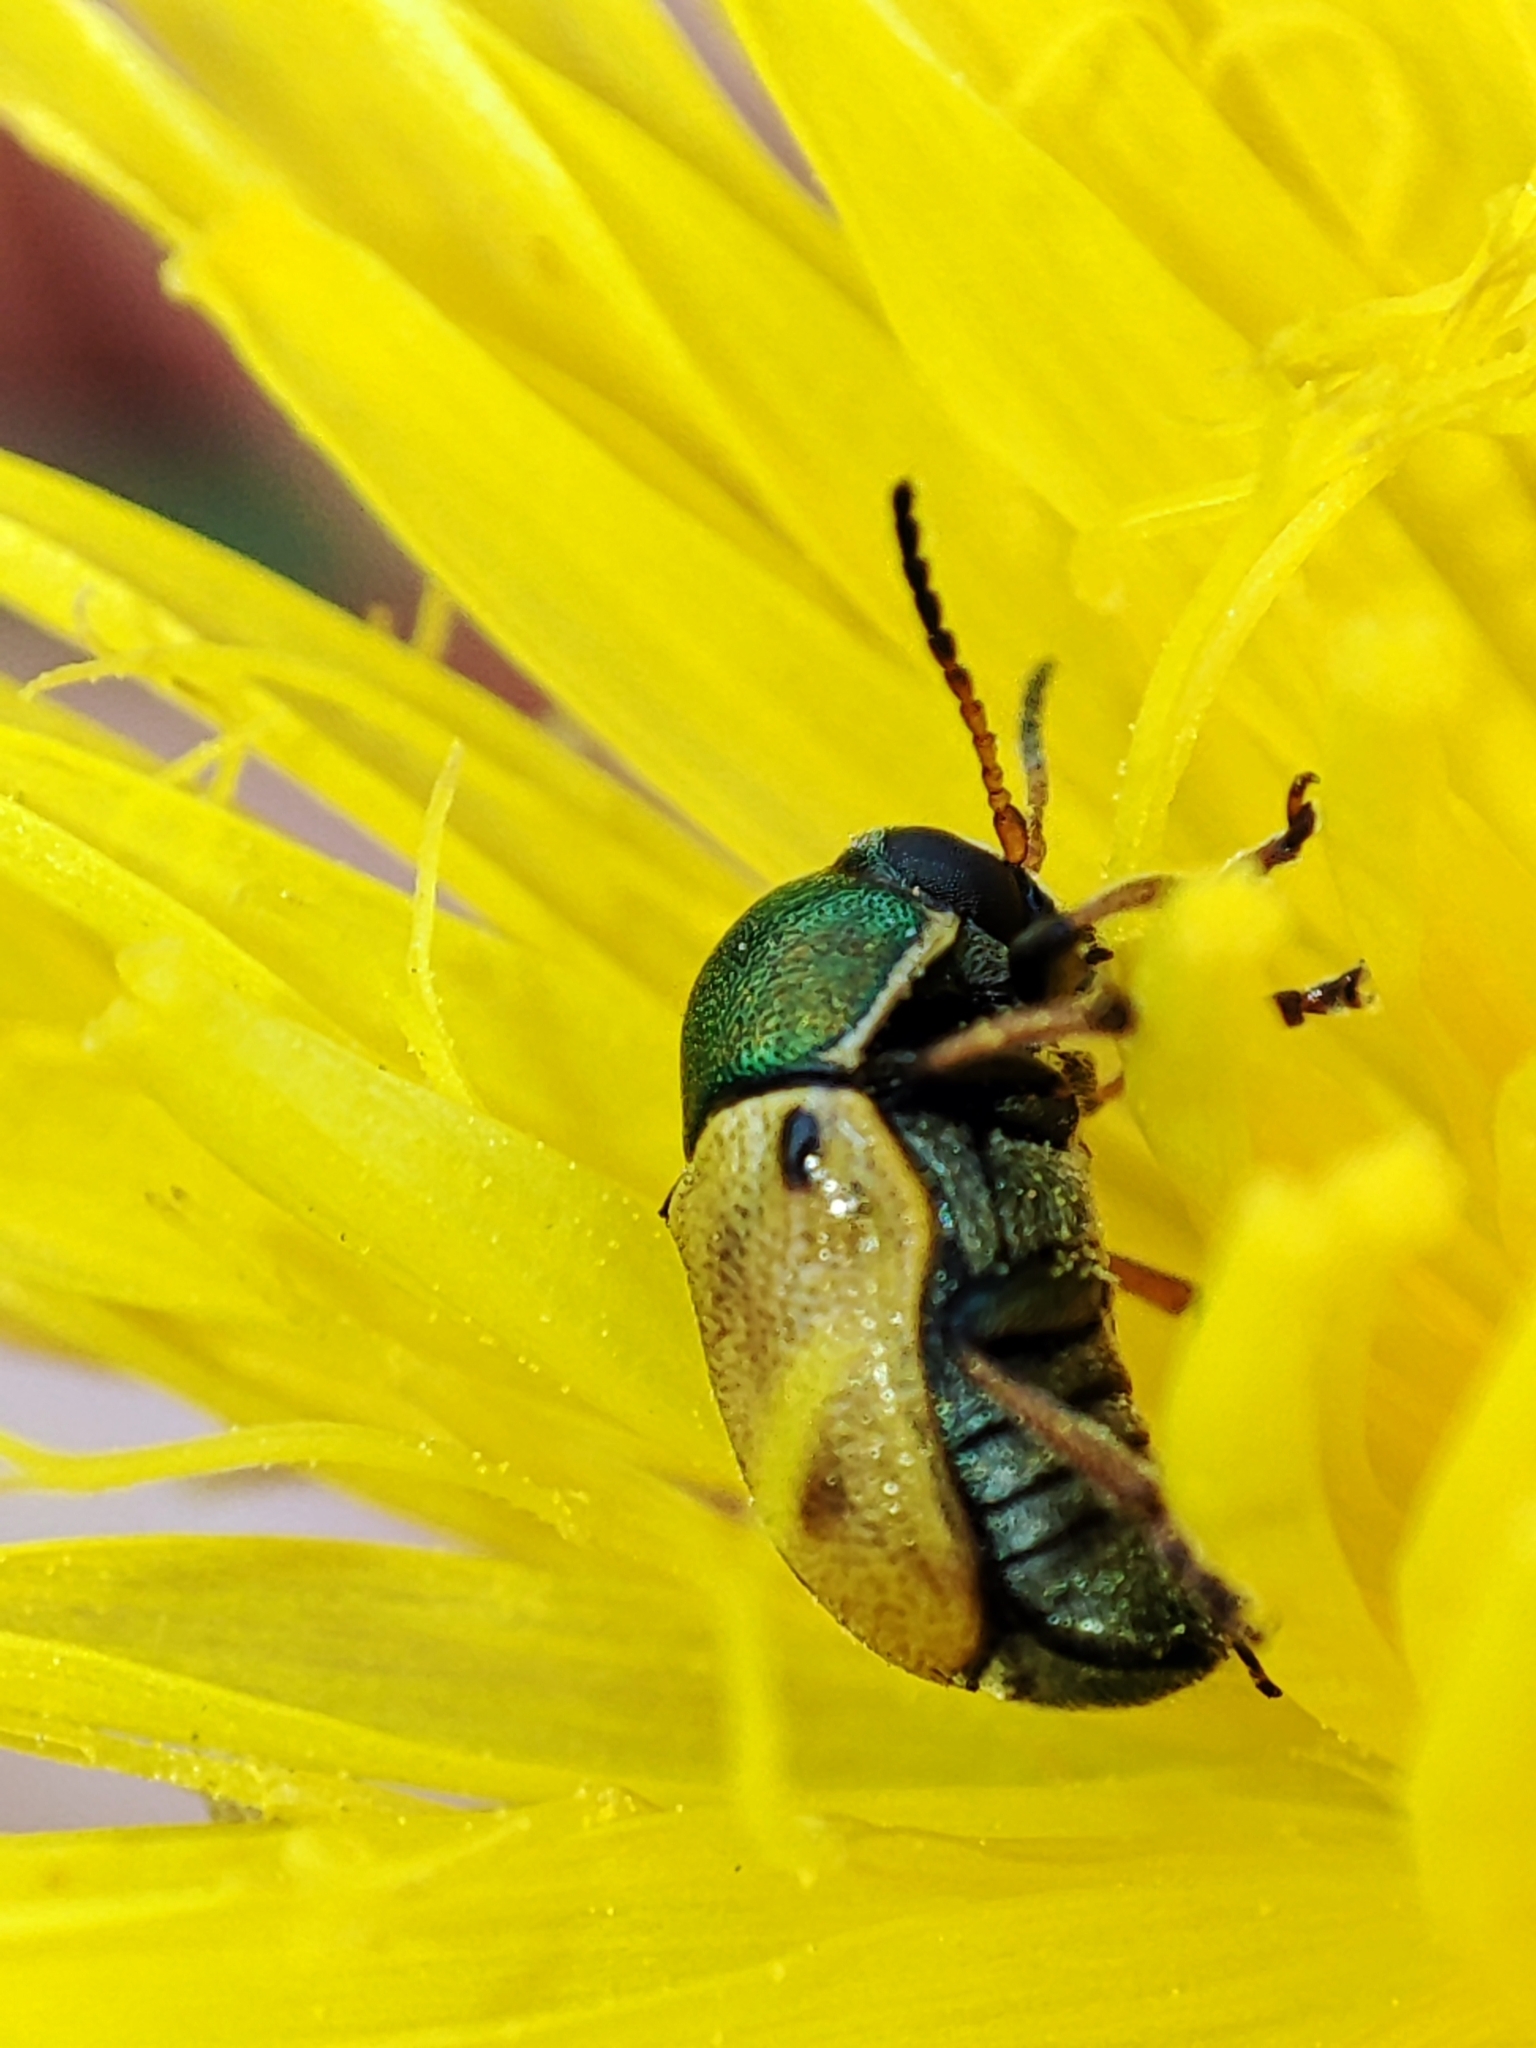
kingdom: Animalia
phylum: Arthropoda
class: Insecta
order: Coleoptera
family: Chrysomelidae
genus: Cryptocephalus
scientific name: Cryptocephalus laetus
